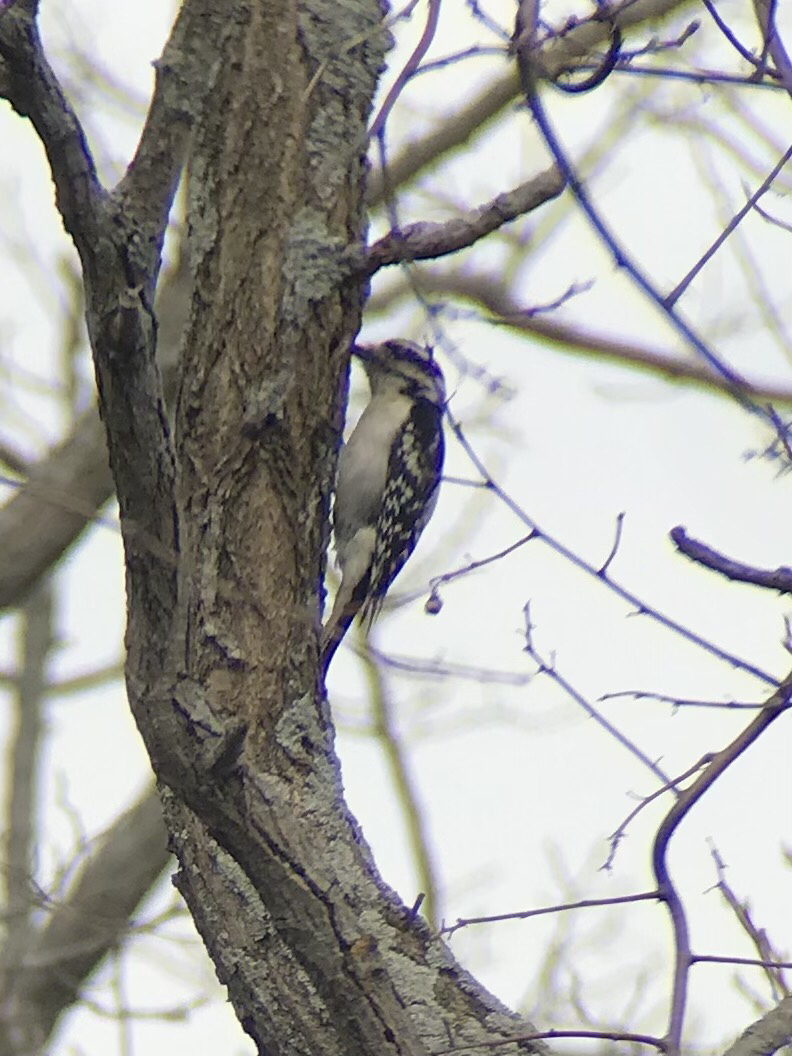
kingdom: Animalia
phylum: Chordata
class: Aves
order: Piciformes
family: Picidae
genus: Dryobates
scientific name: Dryobates pubescens
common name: Downy woodpecker
